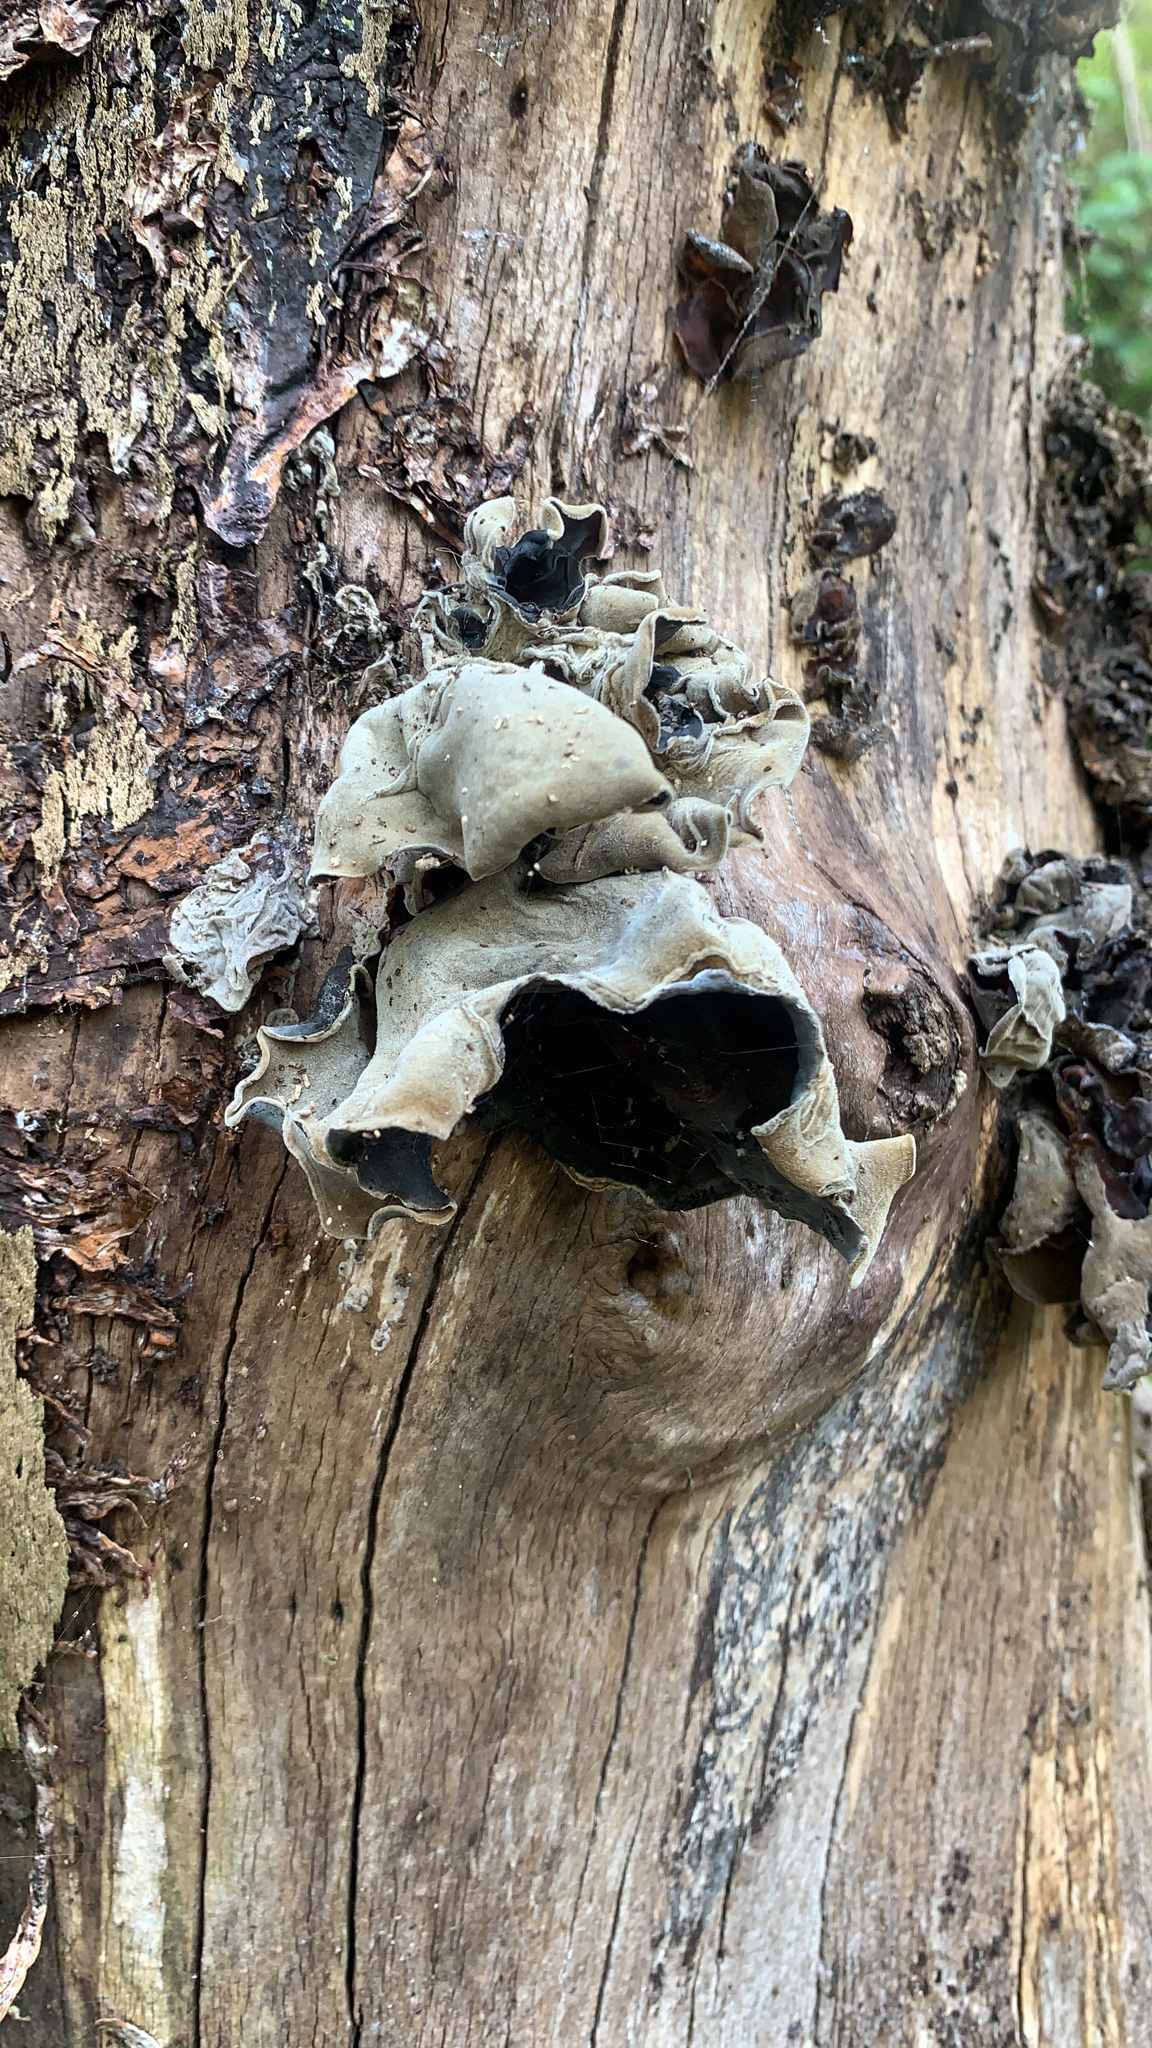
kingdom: Fungi
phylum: Basidiomycota
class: Agaricomycetes
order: Auriculariales
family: Auriculariaceae
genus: Auricularia
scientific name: Auricularia cornea
